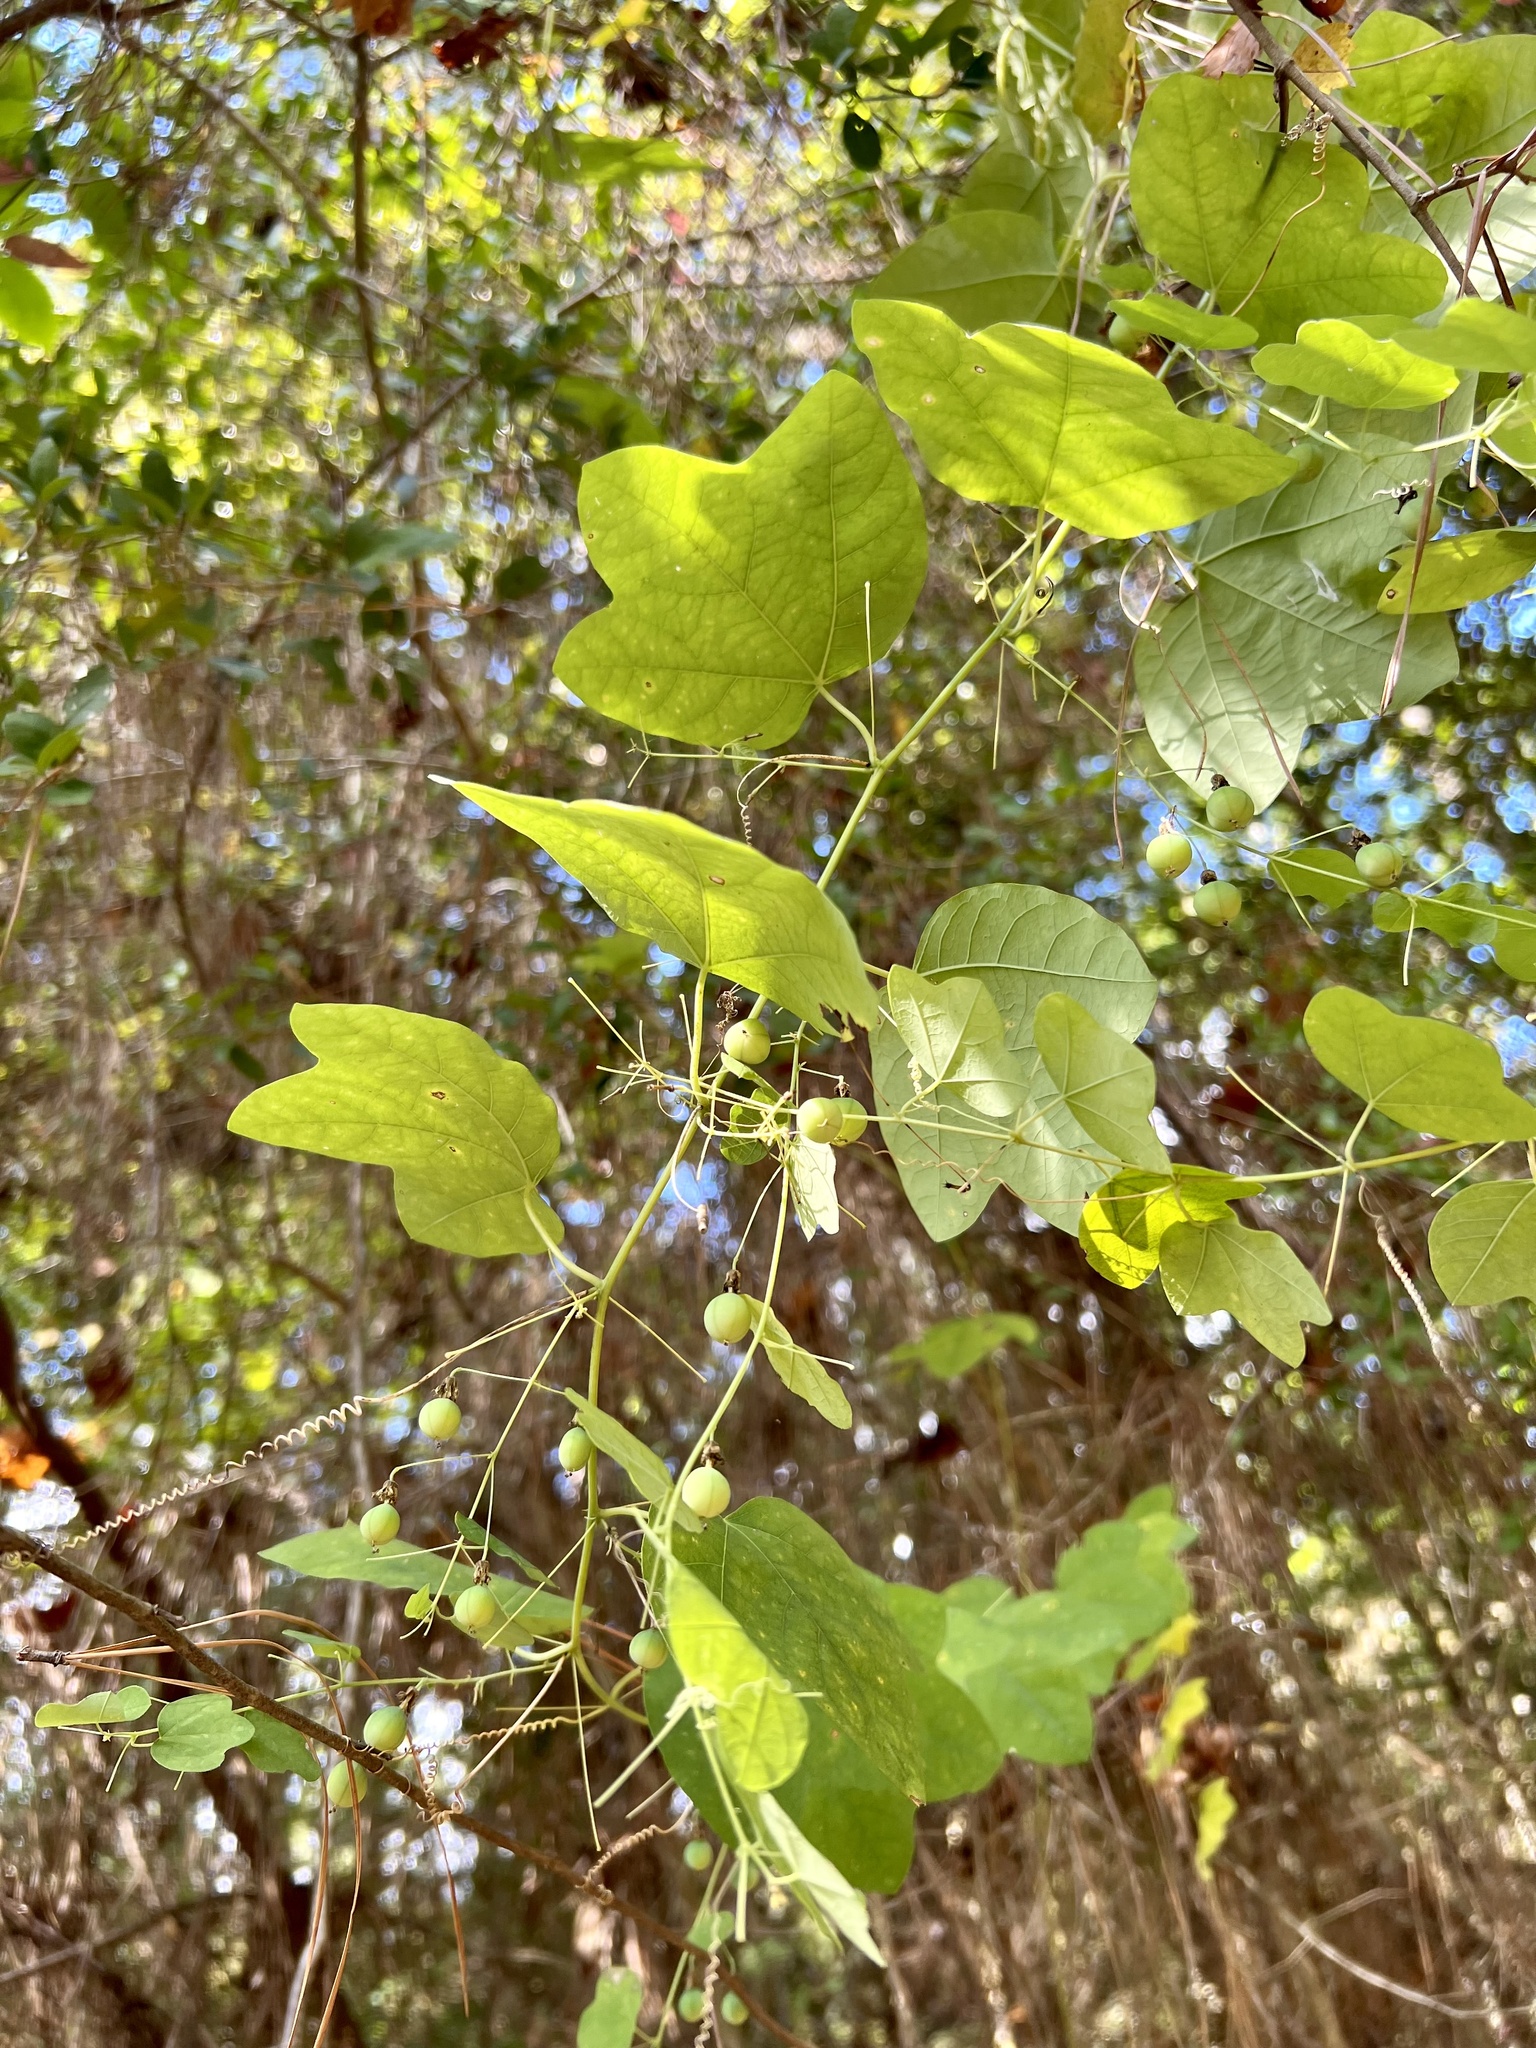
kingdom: Plantae
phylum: Tracheophyta
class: Magnoliopsida
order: Malpighiales
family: Passifloraceae
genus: Passiflora
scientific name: Passiflora lutea
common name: Yellow passionflower
